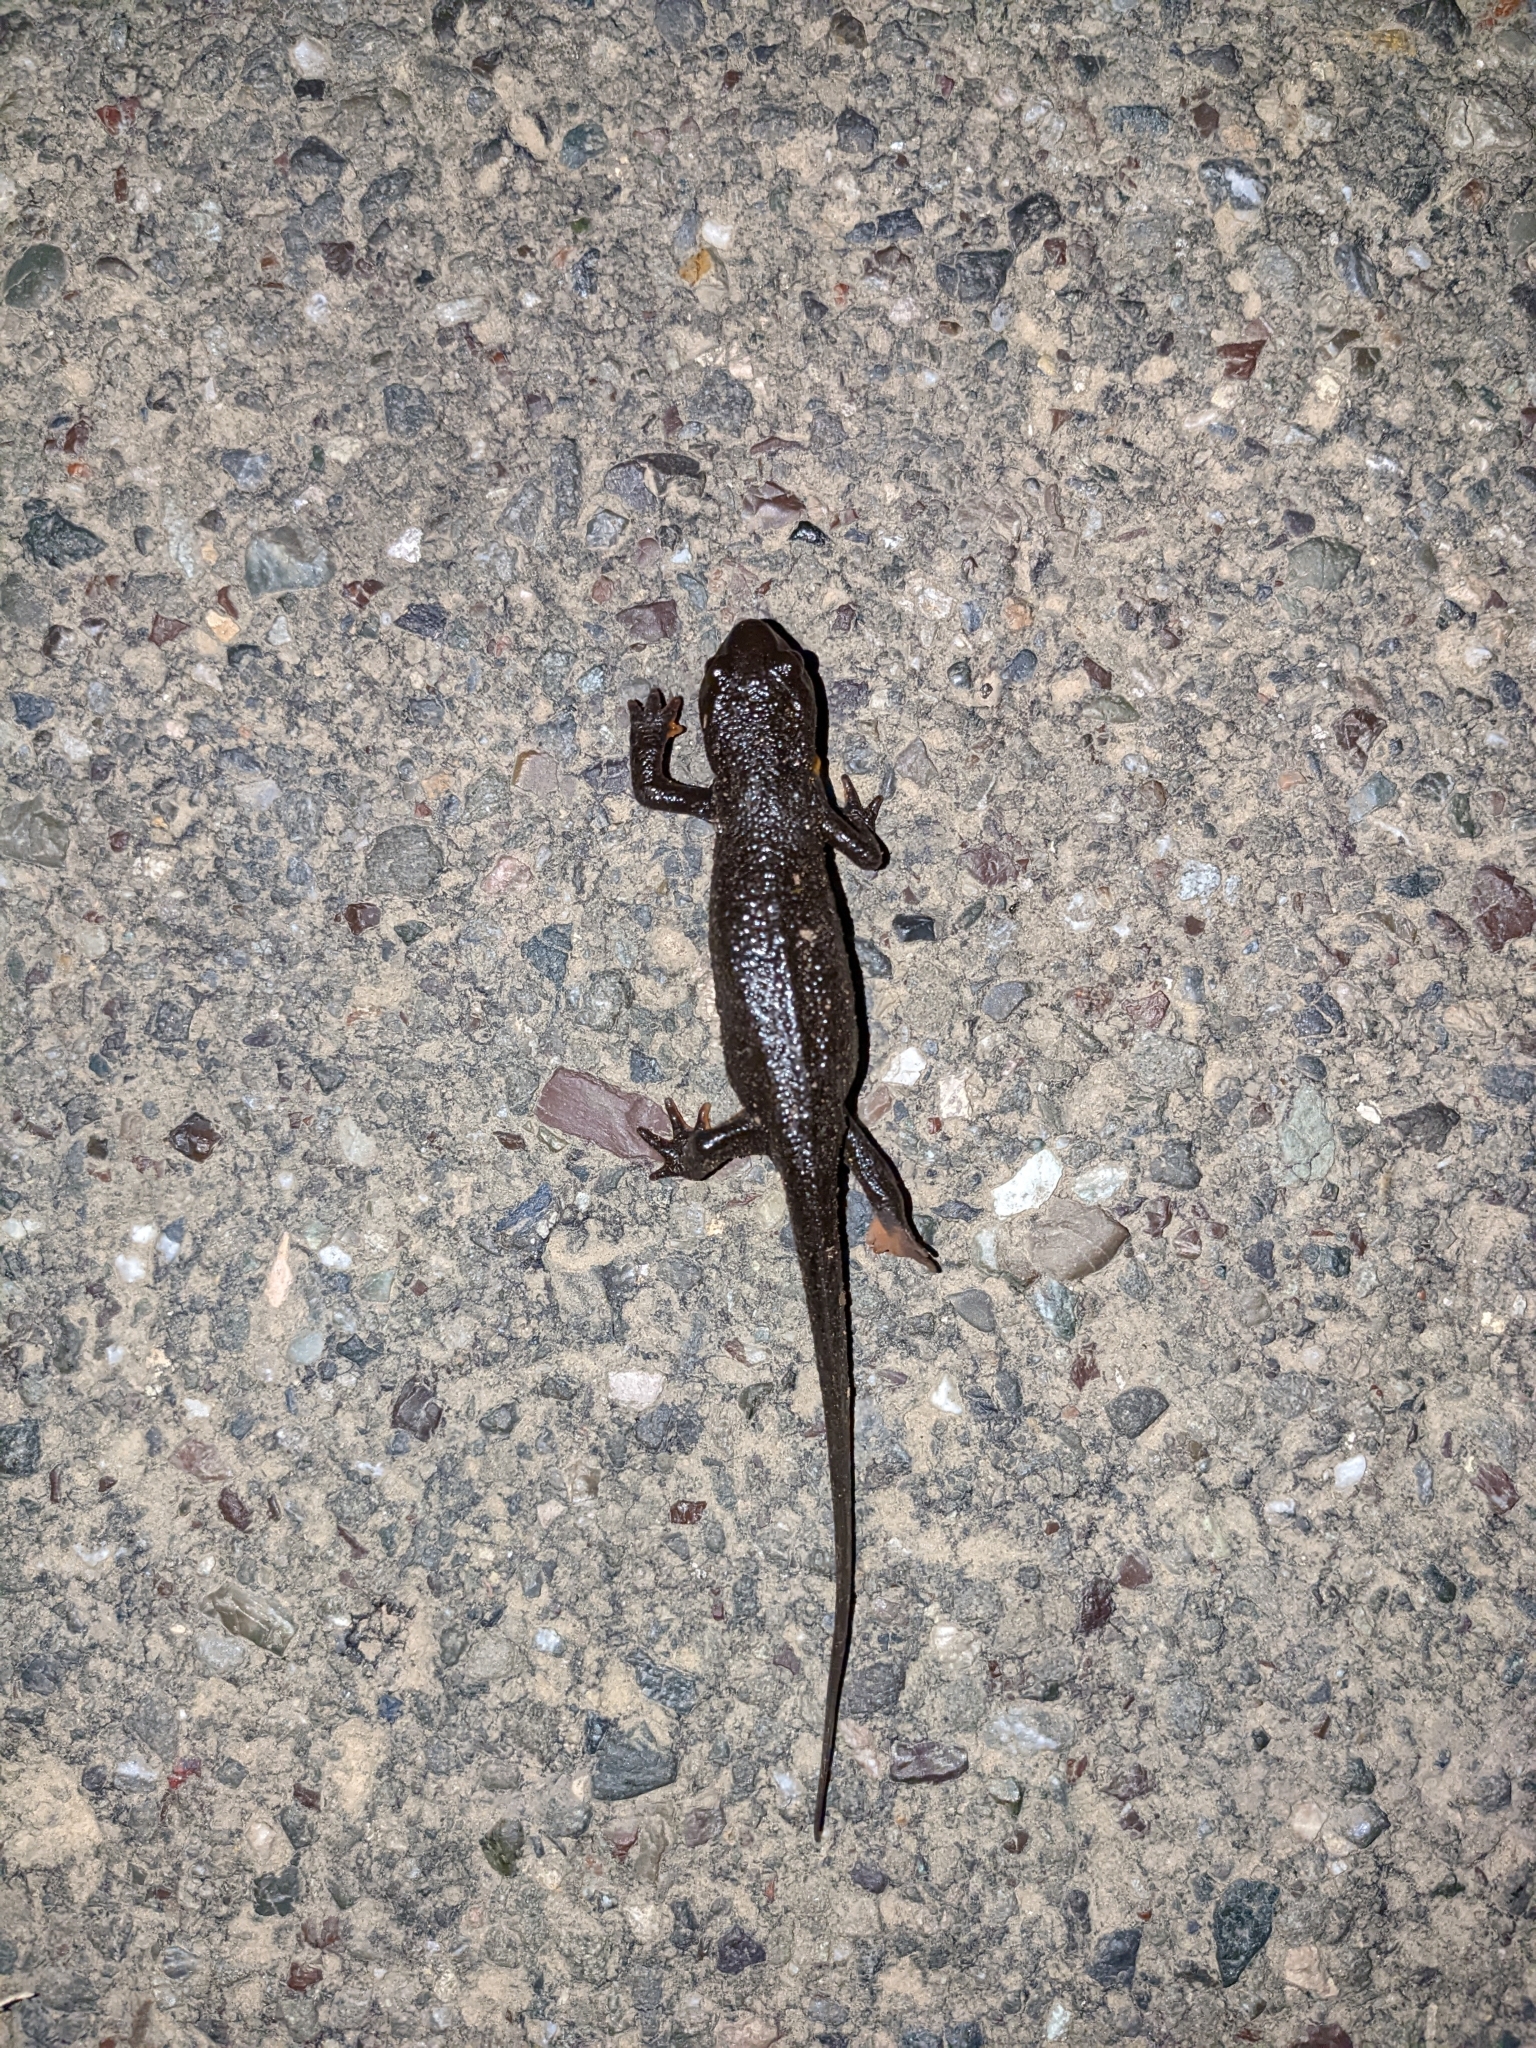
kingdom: Animalia
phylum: Chordata
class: Amphibia
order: Caudata
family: Salamandridae
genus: Taricha
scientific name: Taricha granulosa
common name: Roughskin newt
